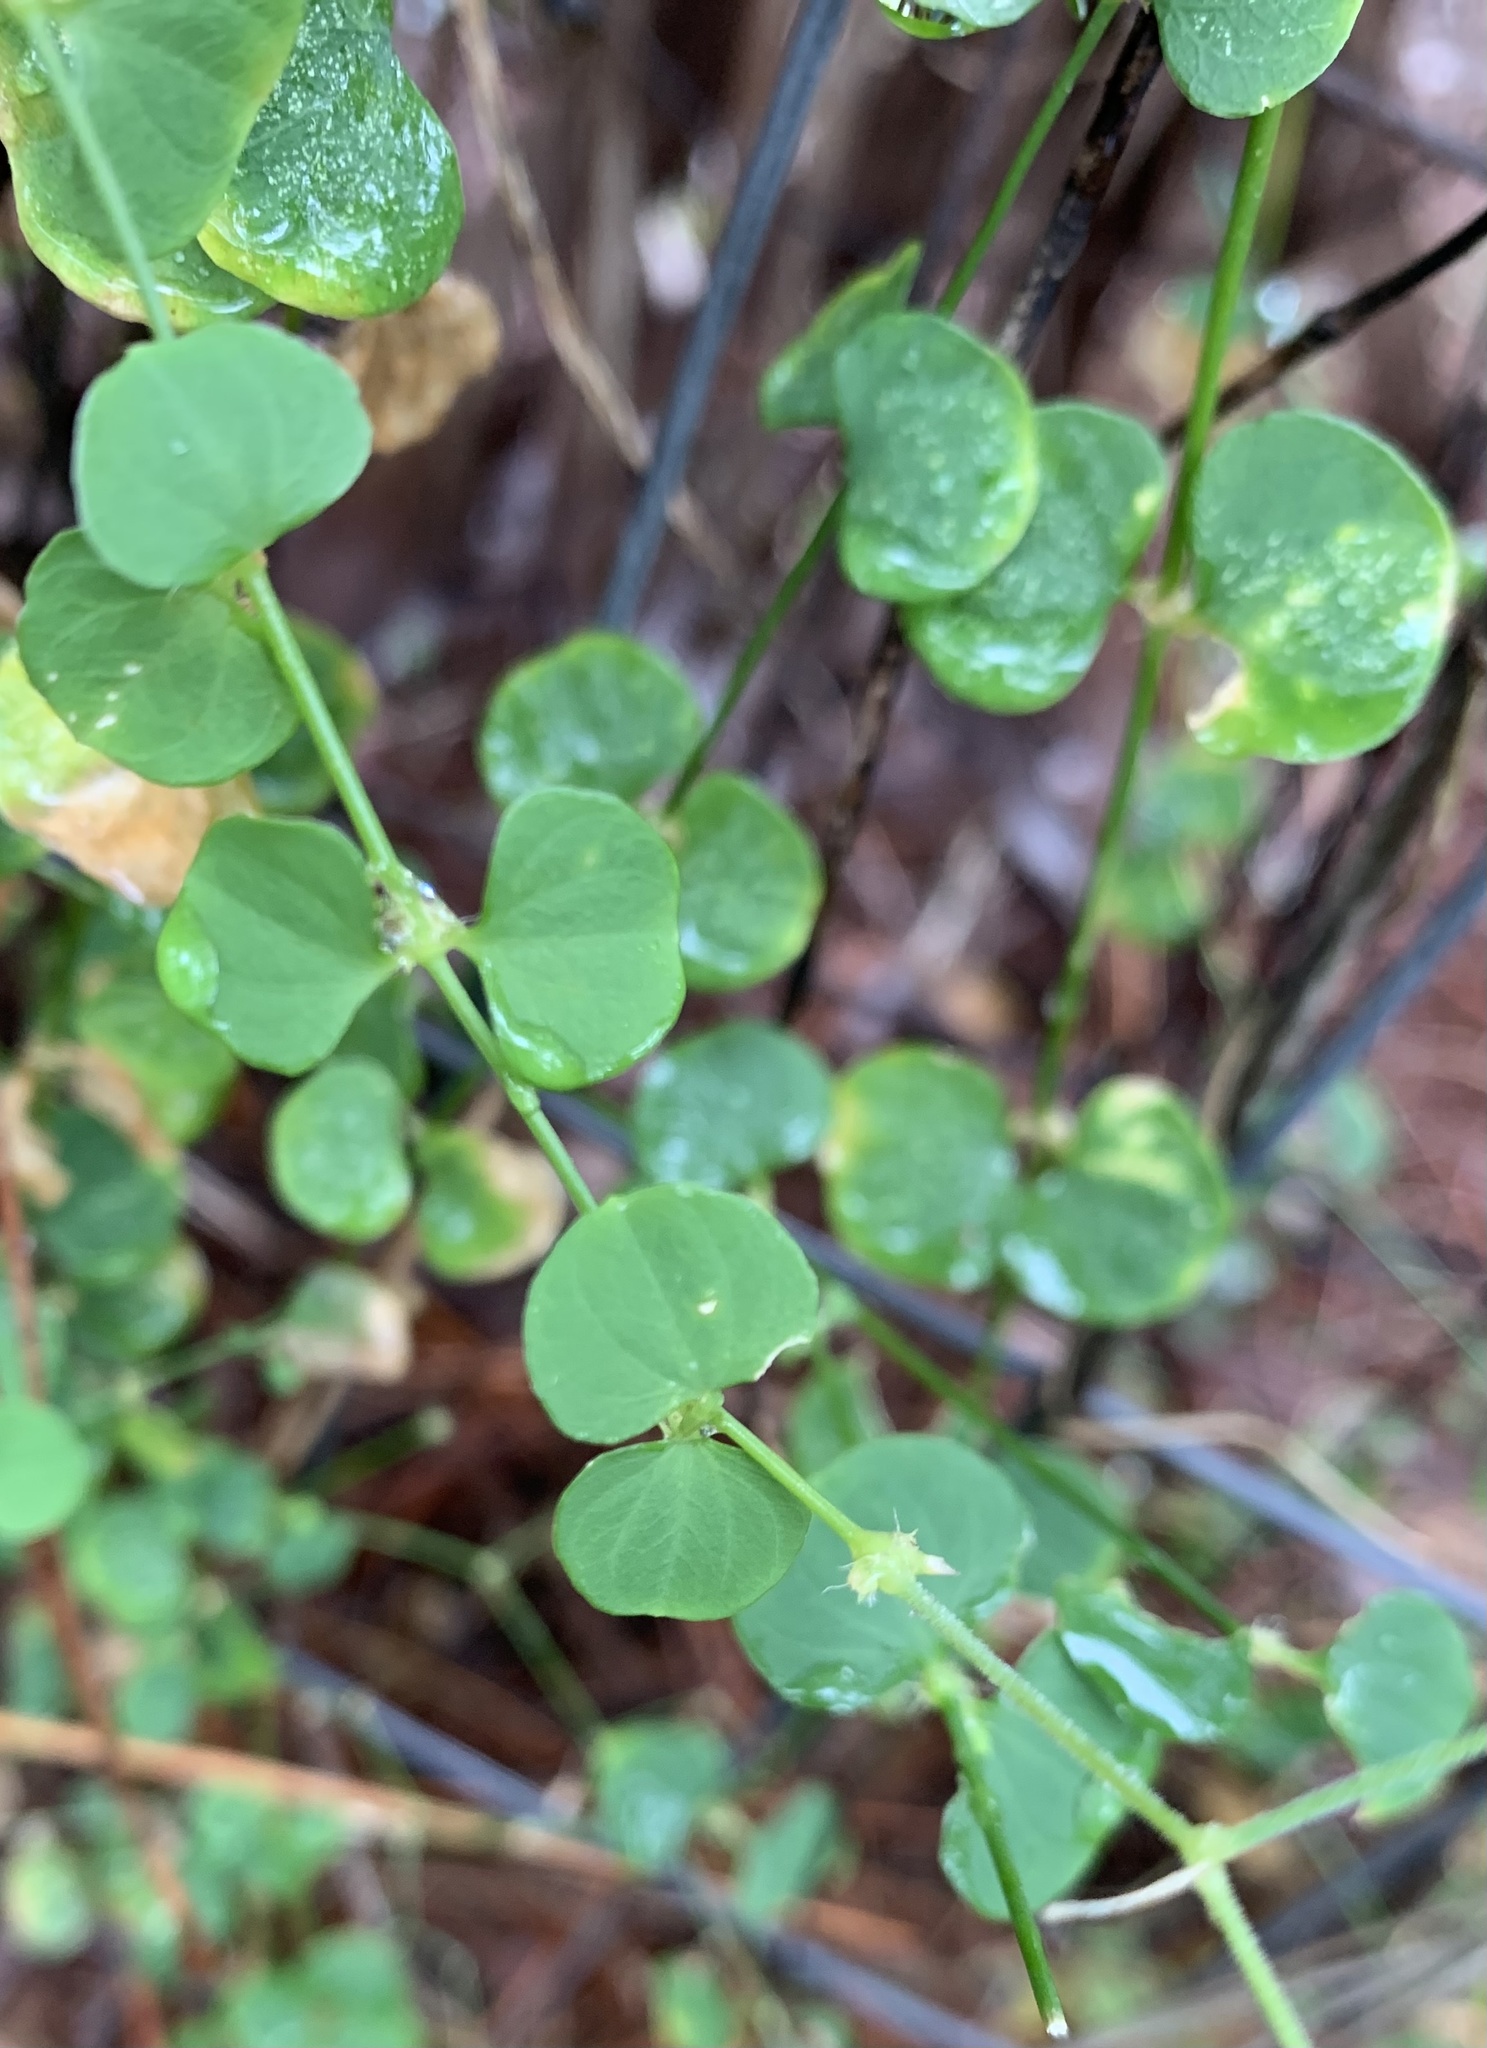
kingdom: Plantae
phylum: Tracheophyta
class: Magnoliopsida
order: Caryophyllales
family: Caryophyllaceae
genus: Drymaria
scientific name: Drymaria cordata
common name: Whitesnow
